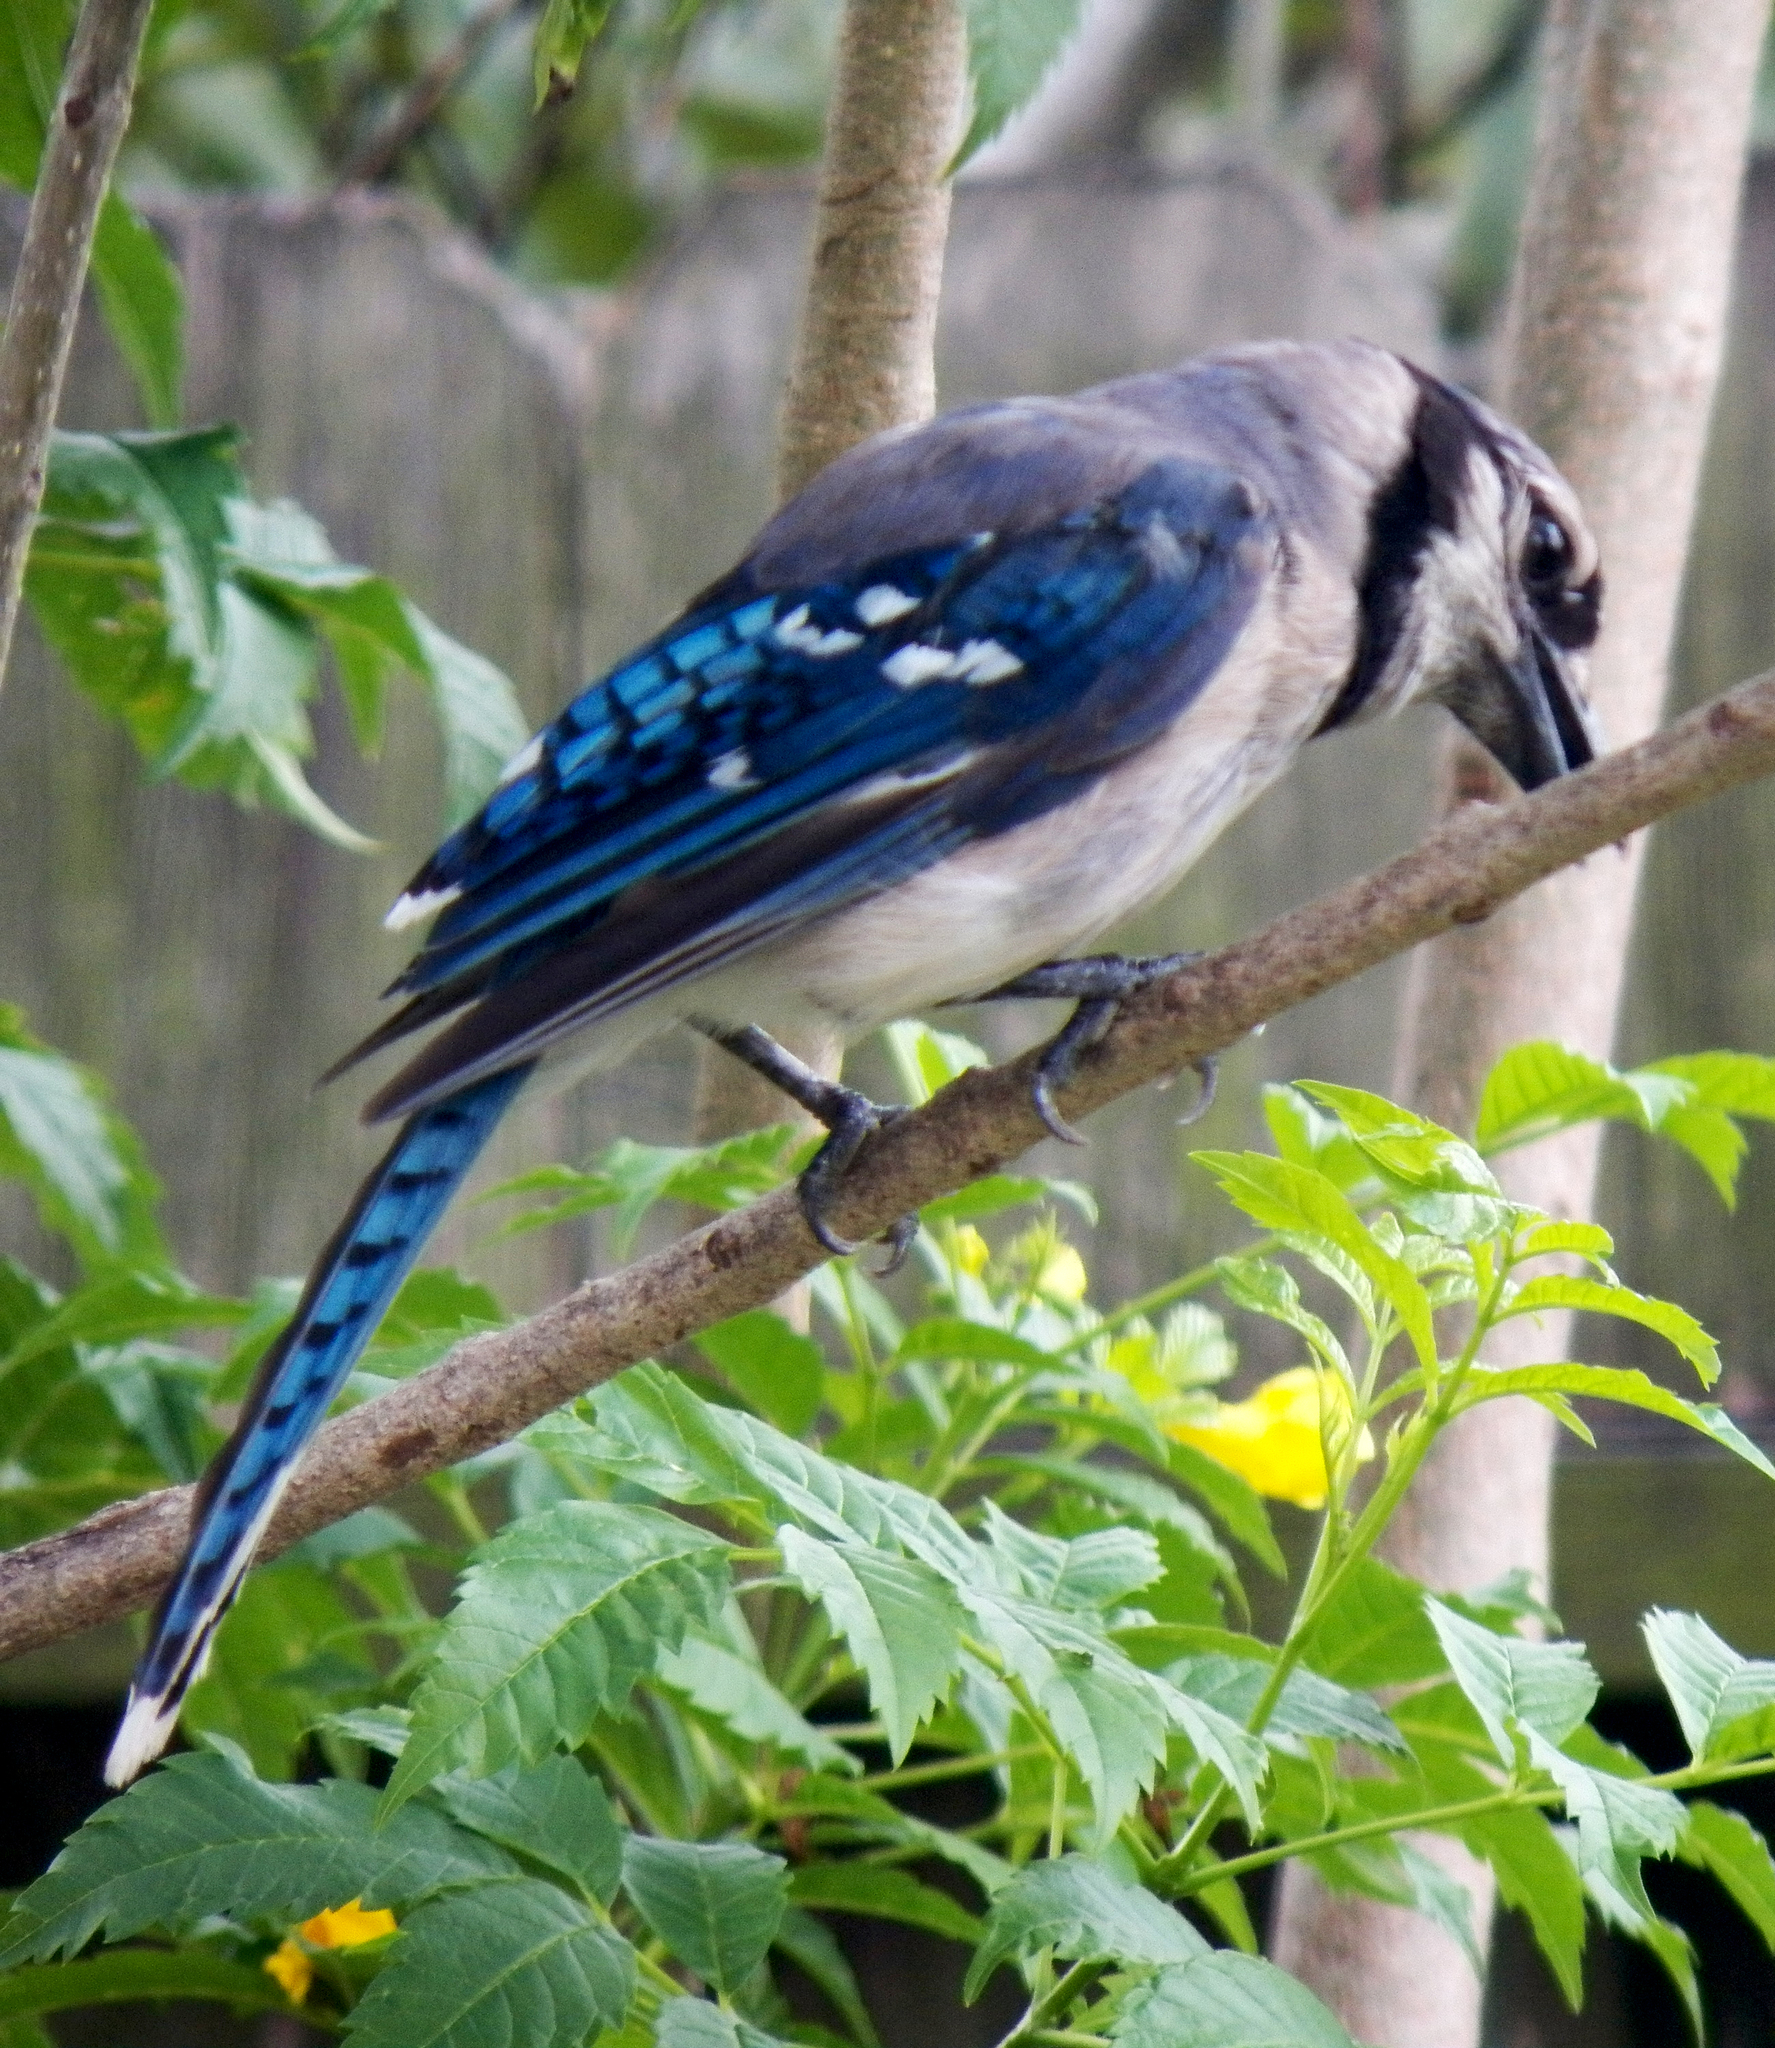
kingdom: Animalia
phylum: Chordata
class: Aves
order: Passeriformes
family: Corvidae
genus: Cyanocitta
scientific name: Cyanocitta cristata
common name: Blue jay
